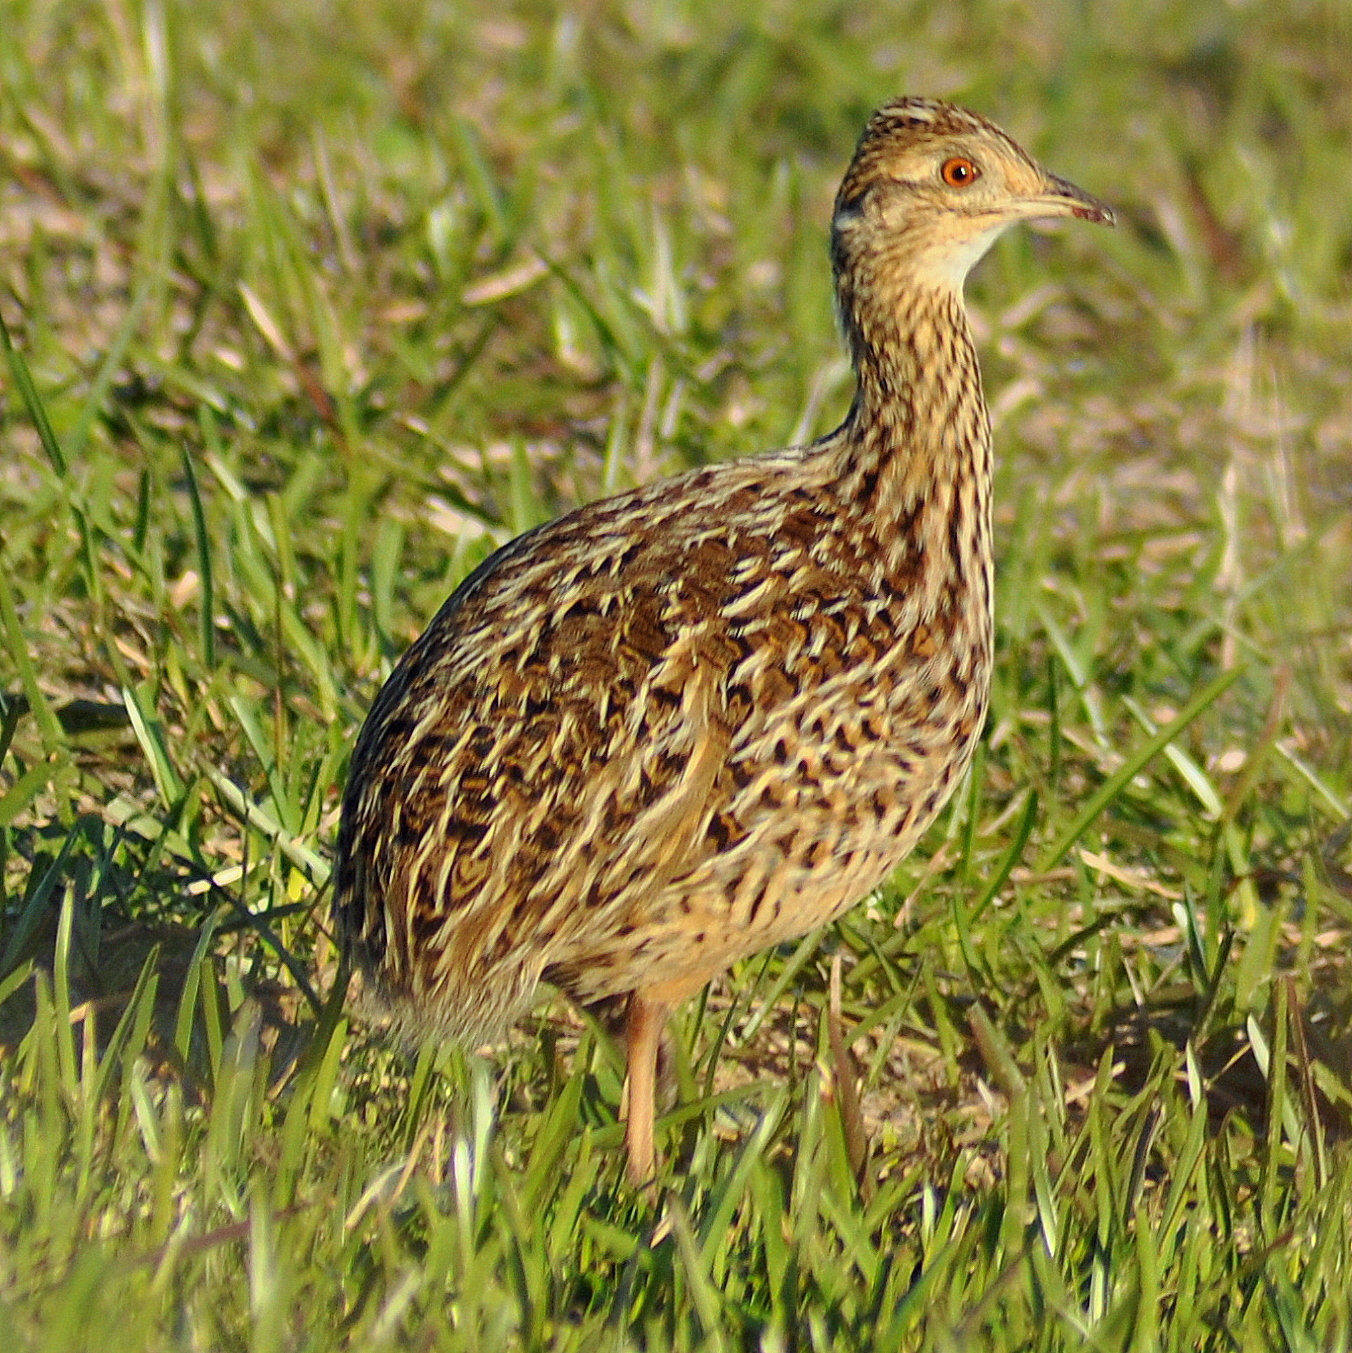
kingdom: Animalia
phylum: Chordata
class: Aves
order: Tinamiformes
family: Tinamidae
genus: Nothura
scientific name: Nothura maculosa
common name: Spotted nothura
